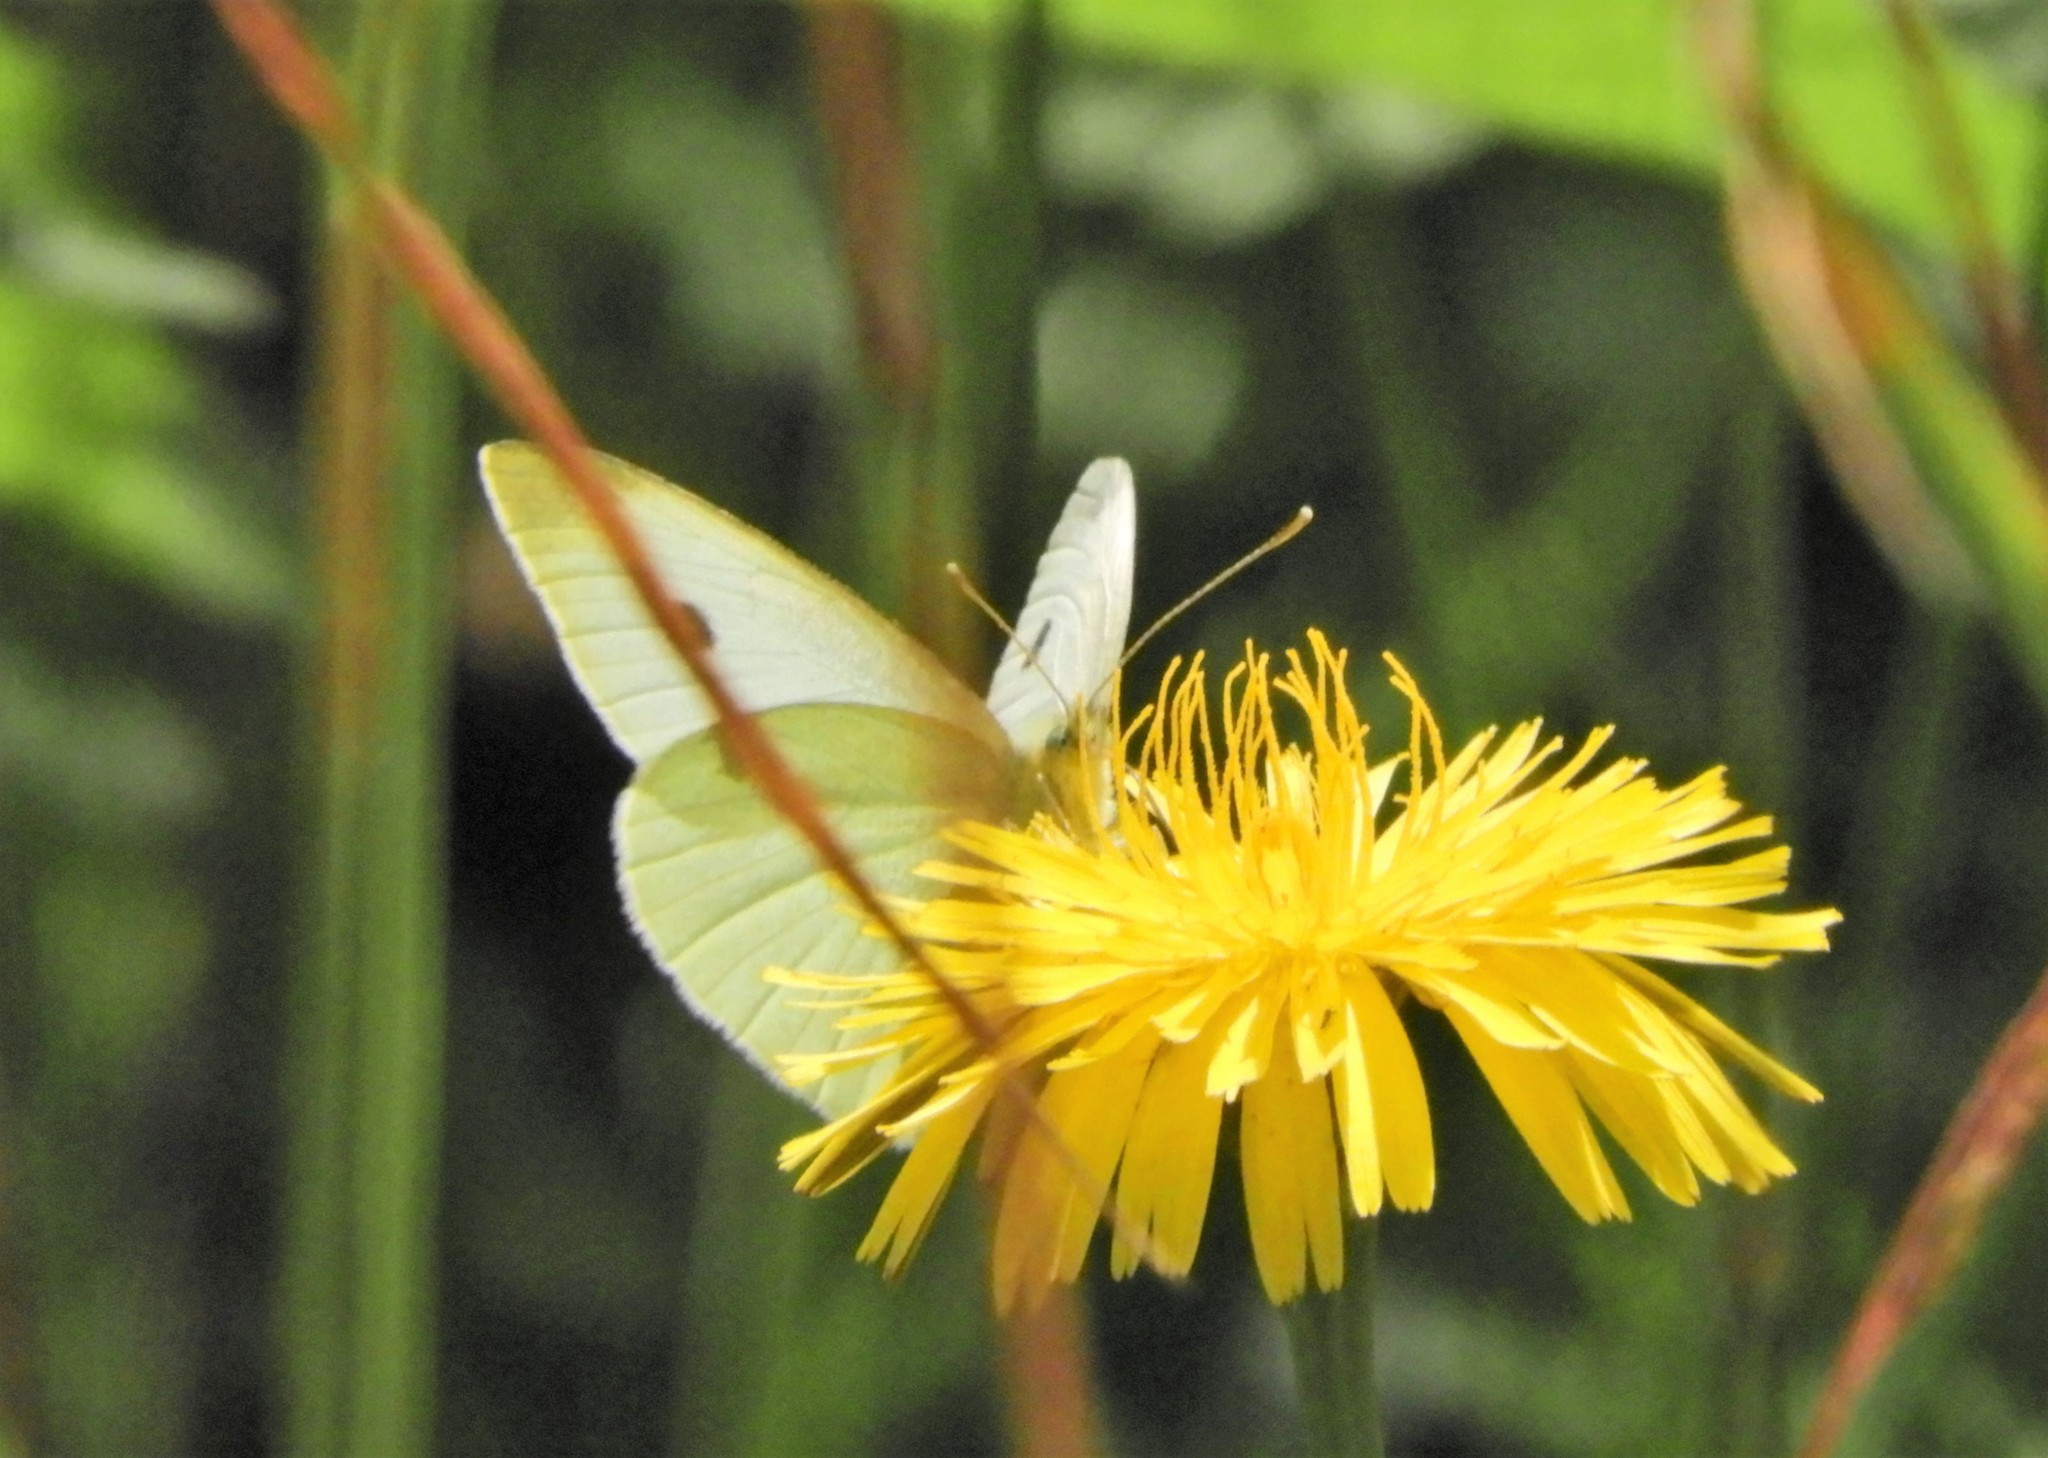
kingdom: Animalia
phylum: Arthropoda
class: Insecta
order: Lepidoptera
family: Pieridae
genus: Pieris
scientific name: Pieris rapae
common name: Small white
